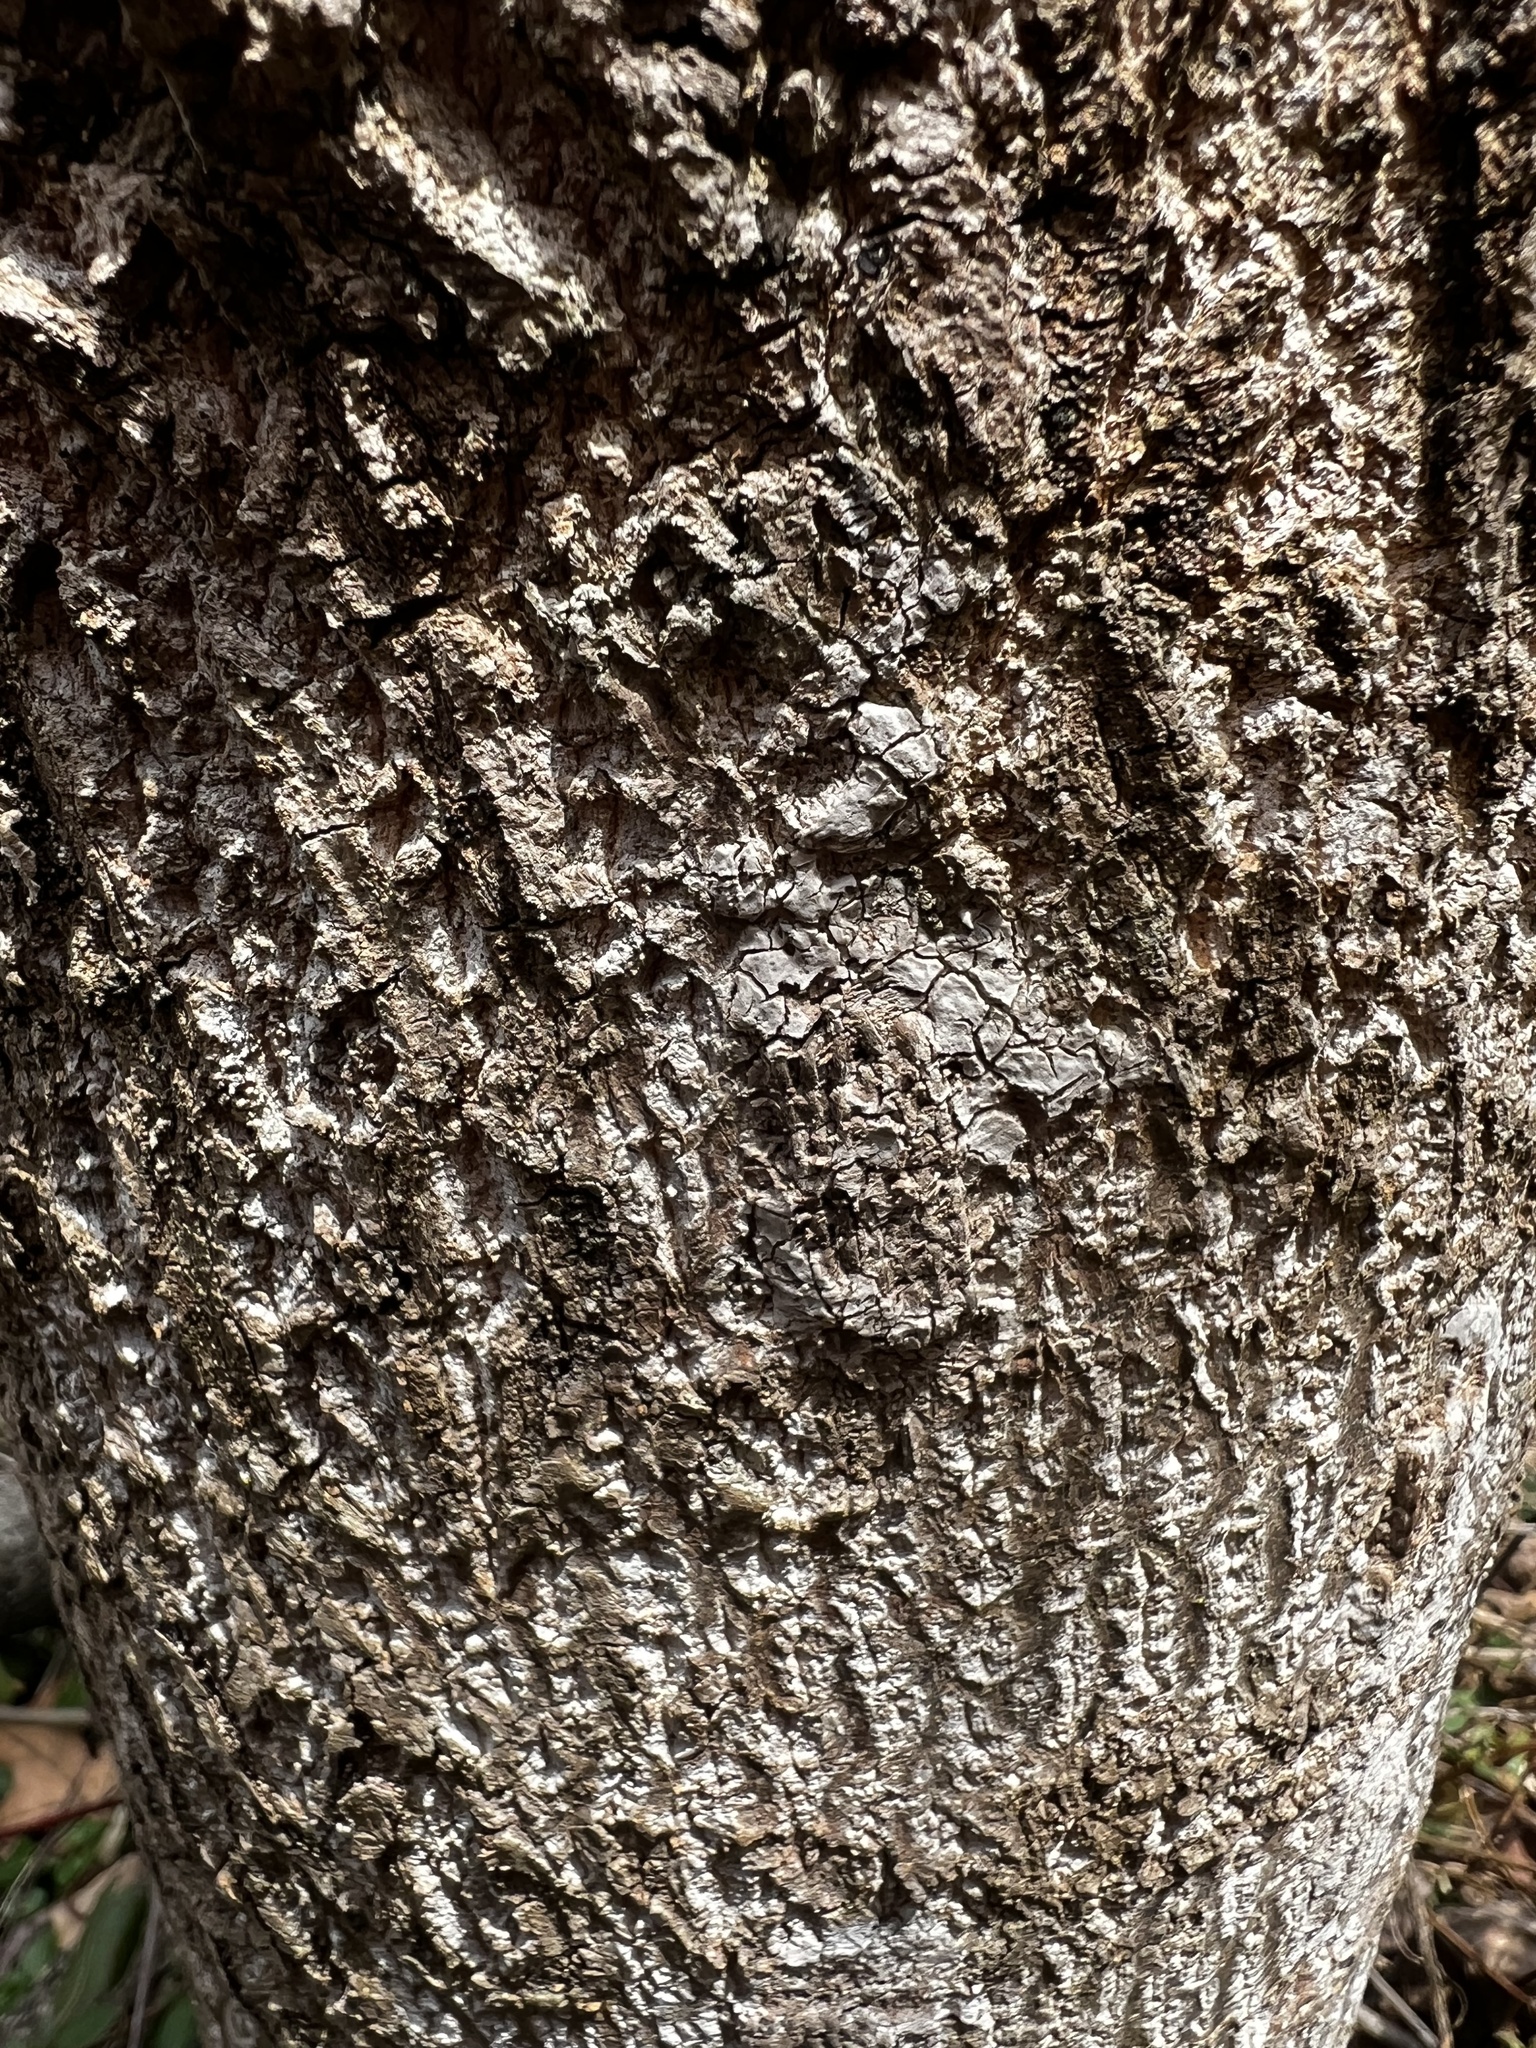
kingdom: Animalia
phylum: Arthropoda
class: Insecta
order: Hemiptera
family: Fulgoridae
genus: Lycorma
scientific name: Lycorma delicatula
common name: Spotted lanternfly
